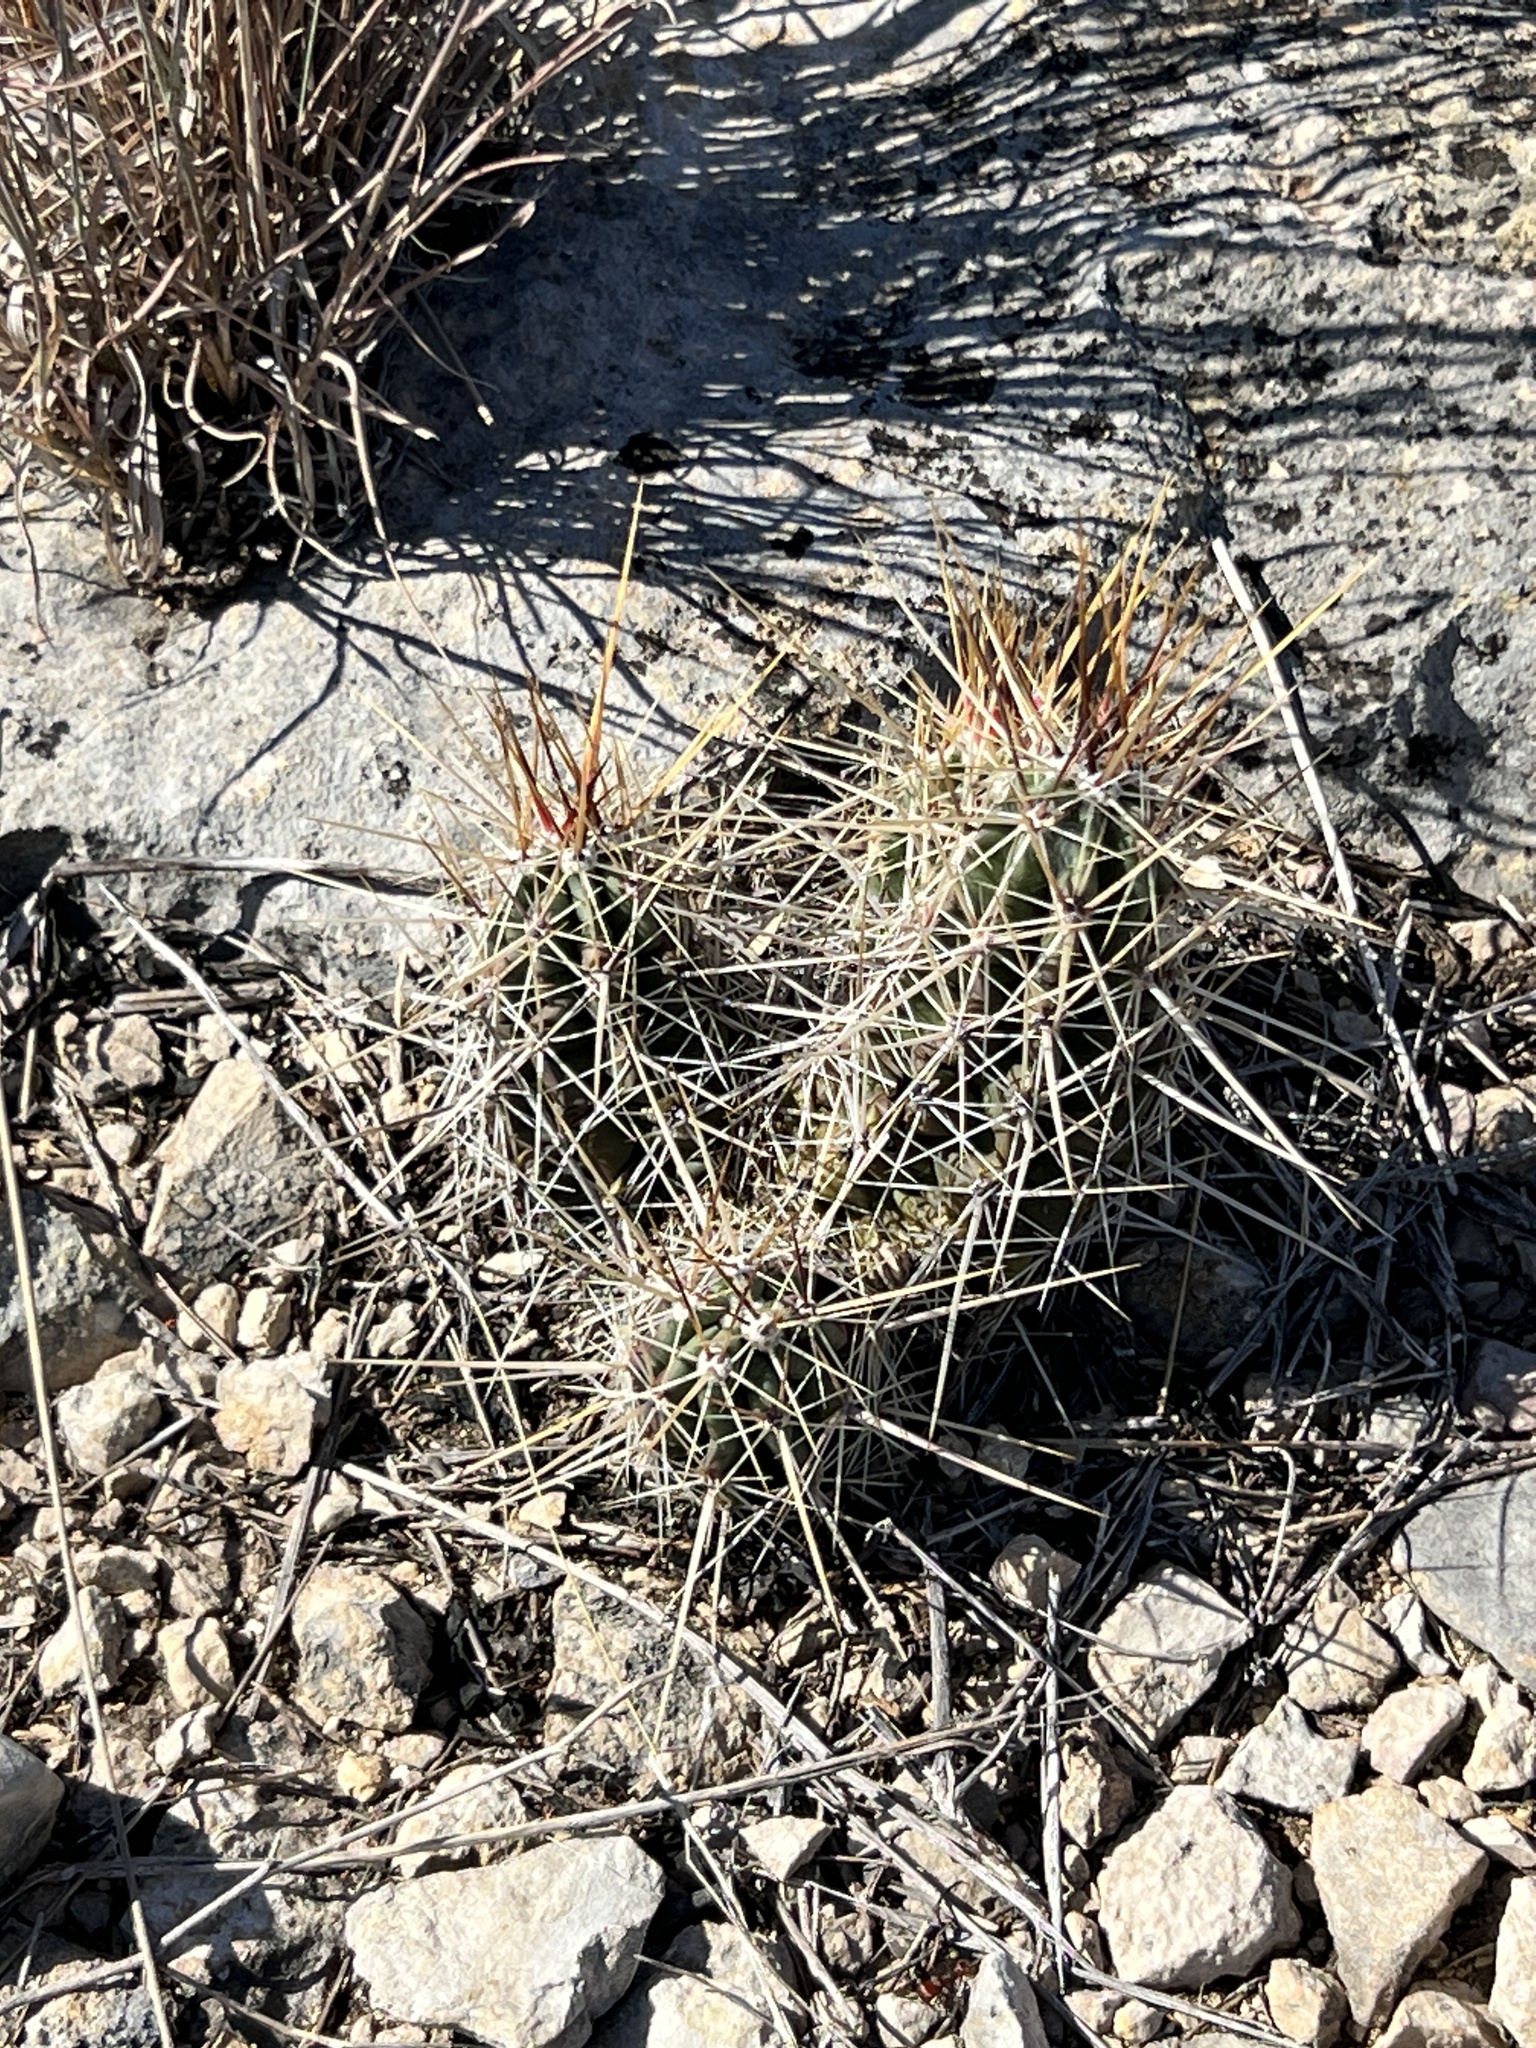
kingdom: Plantae
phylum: Tracheophyta
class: Magnoliopsida
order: Caryophyllales
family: Cactaceae
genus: Echinocereus
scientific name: Echinocereus enneacanthus
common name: Pitaya
